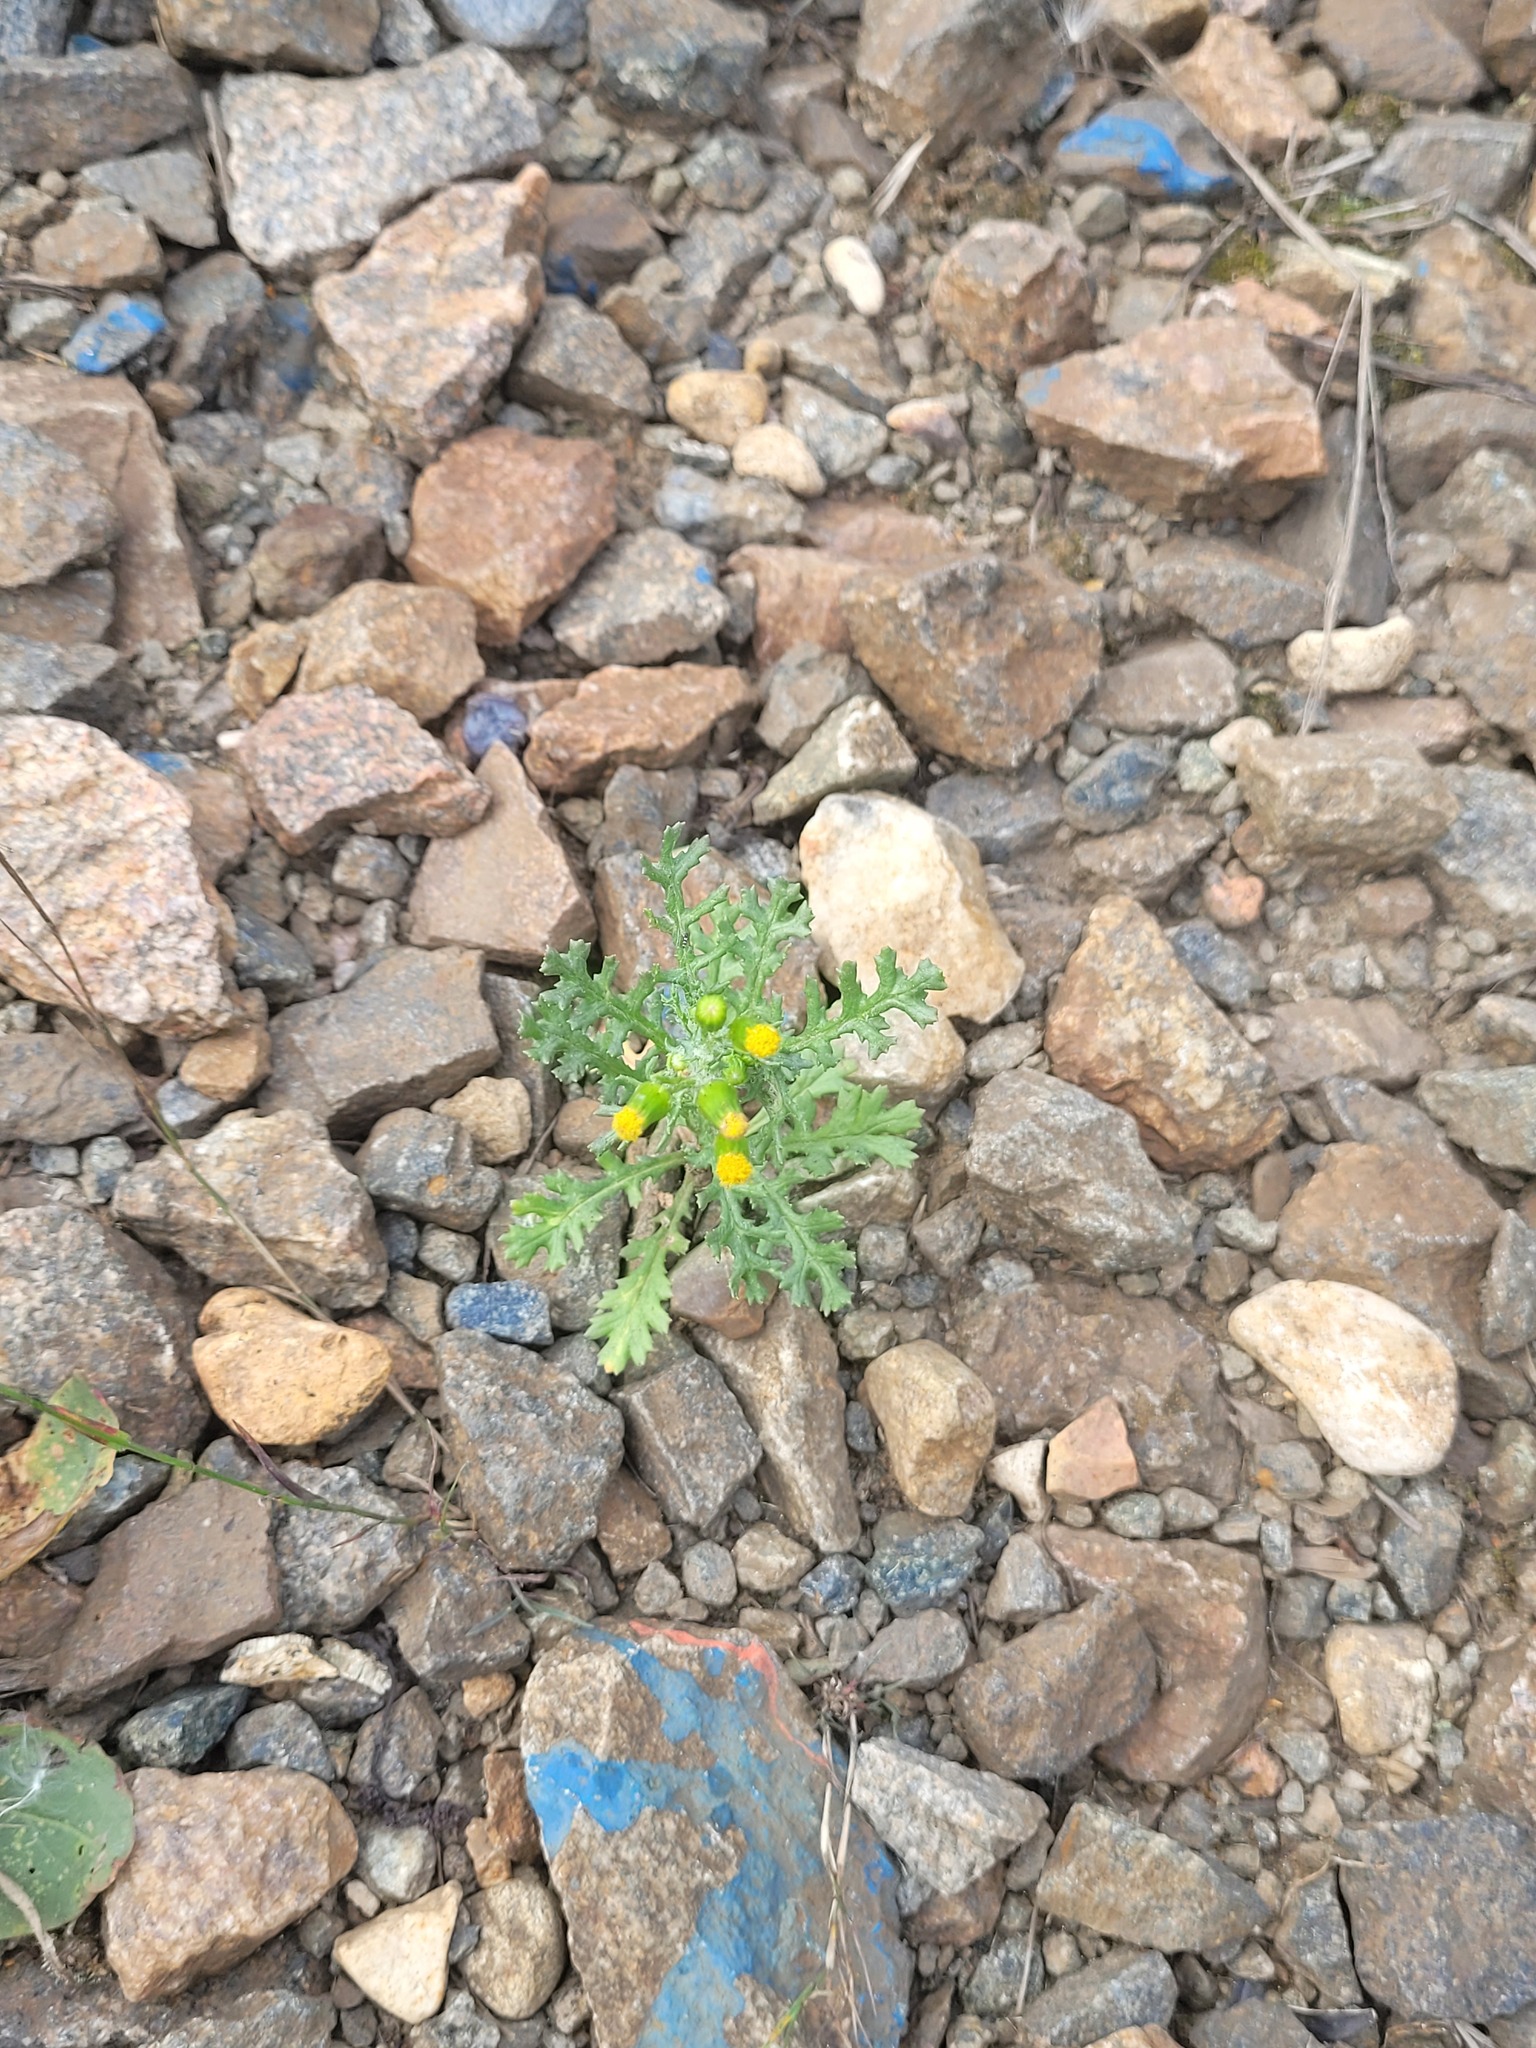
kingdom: Plantae
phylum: Tracheophyta
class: Magnoliopsida
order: Asterales
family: Asteraceae
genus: Senecio
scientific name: Senecio vulgaris
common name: Old-man-in-the-spring
